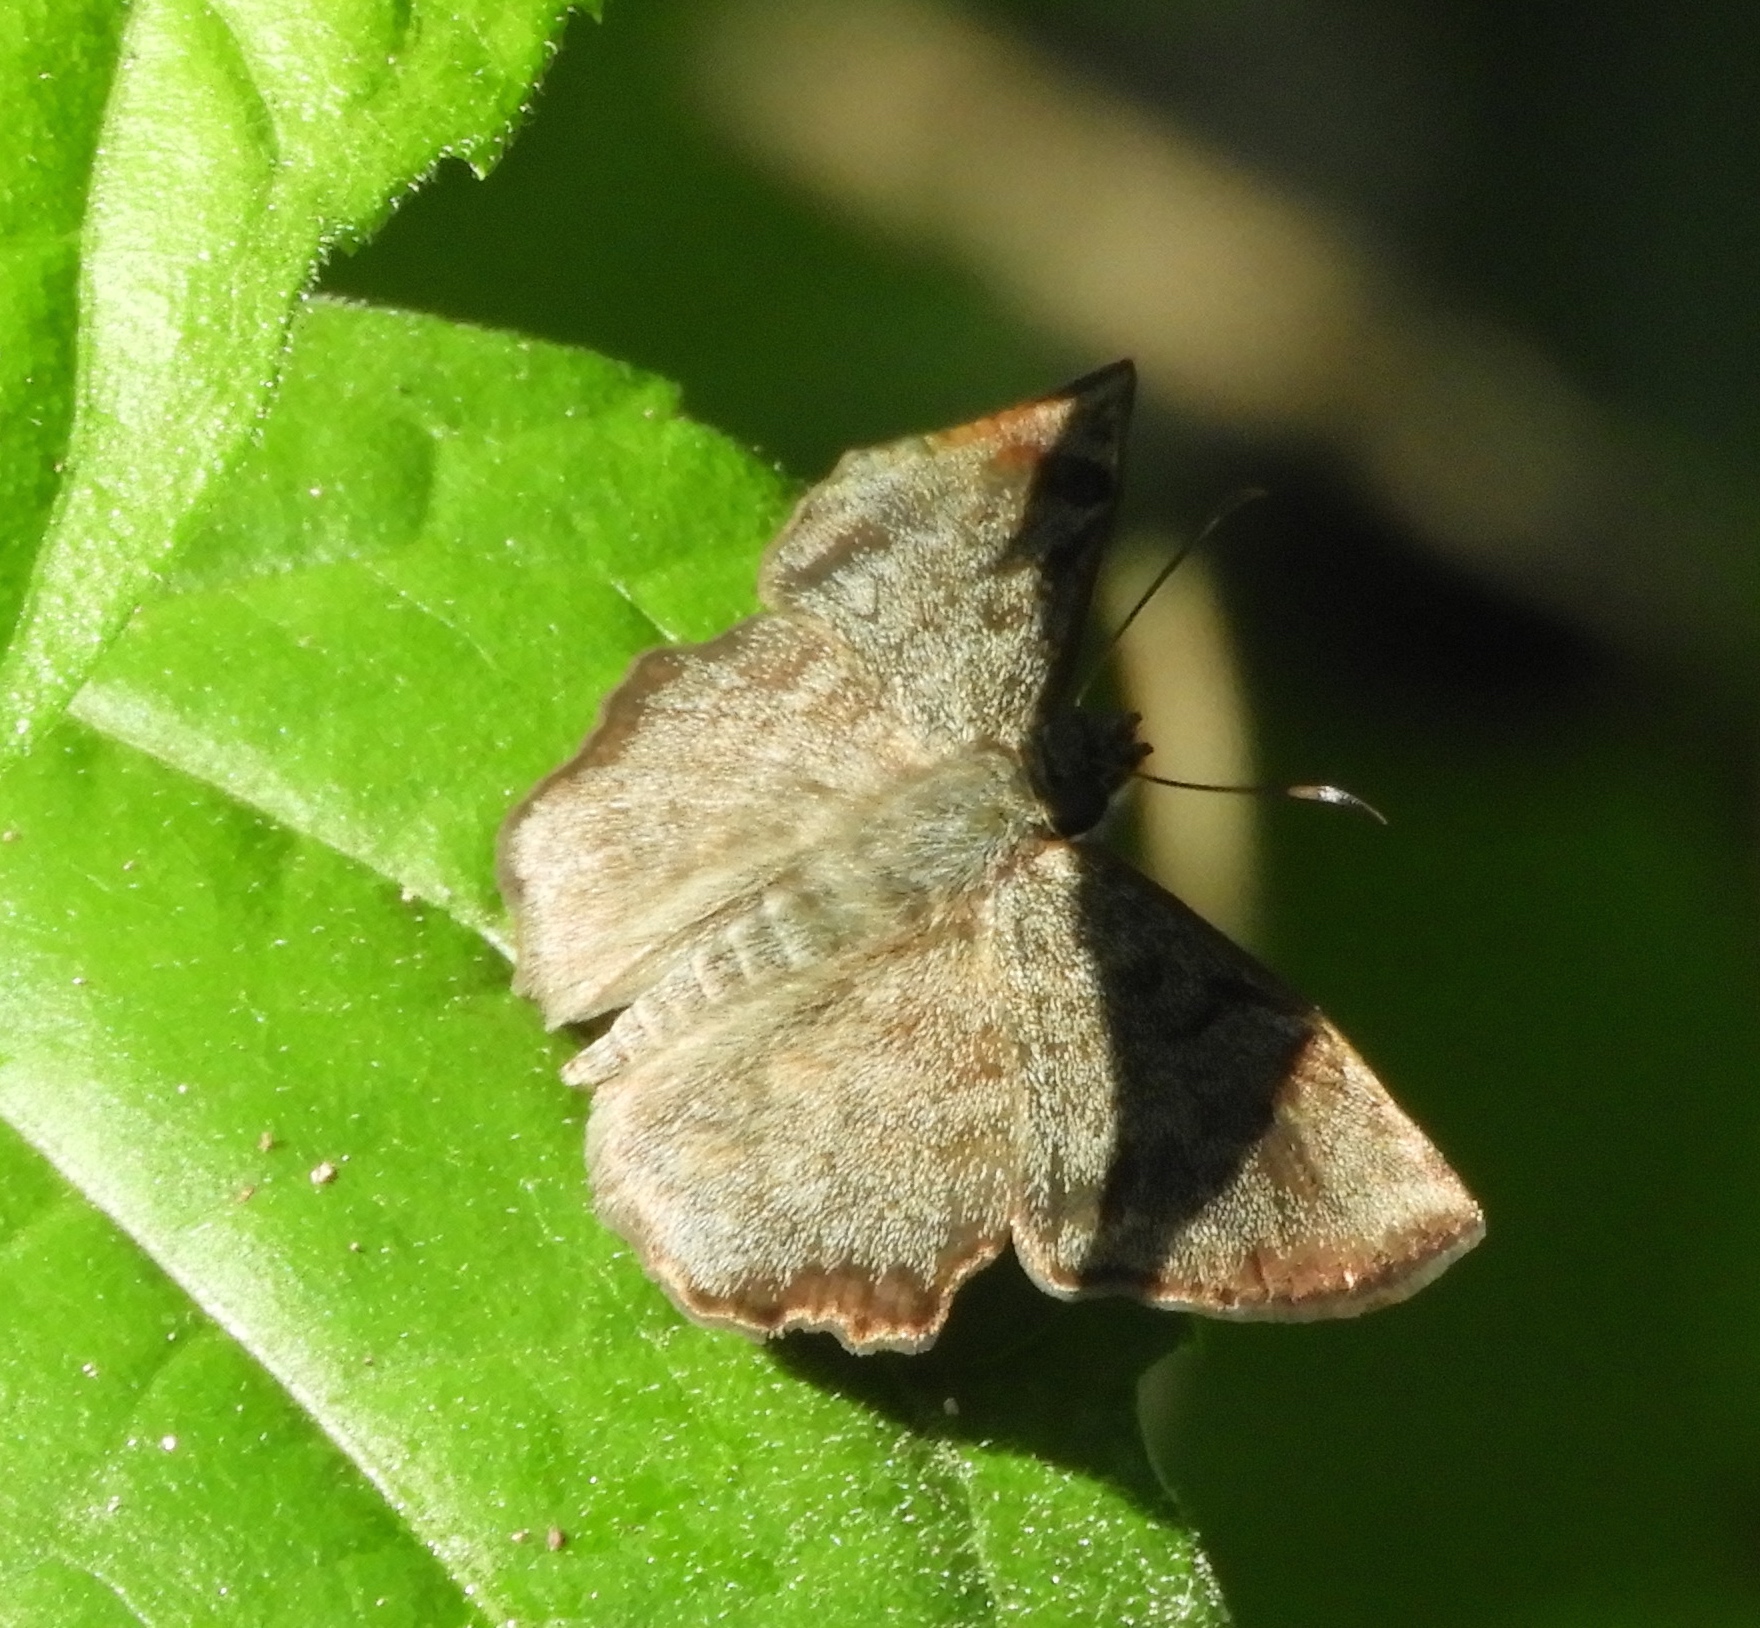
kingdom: Animalia
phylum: Arthropoda
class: Insecta
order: Lepidoptera
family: Hesperiidae
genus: Antigonus
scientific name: Antigonus erosus
